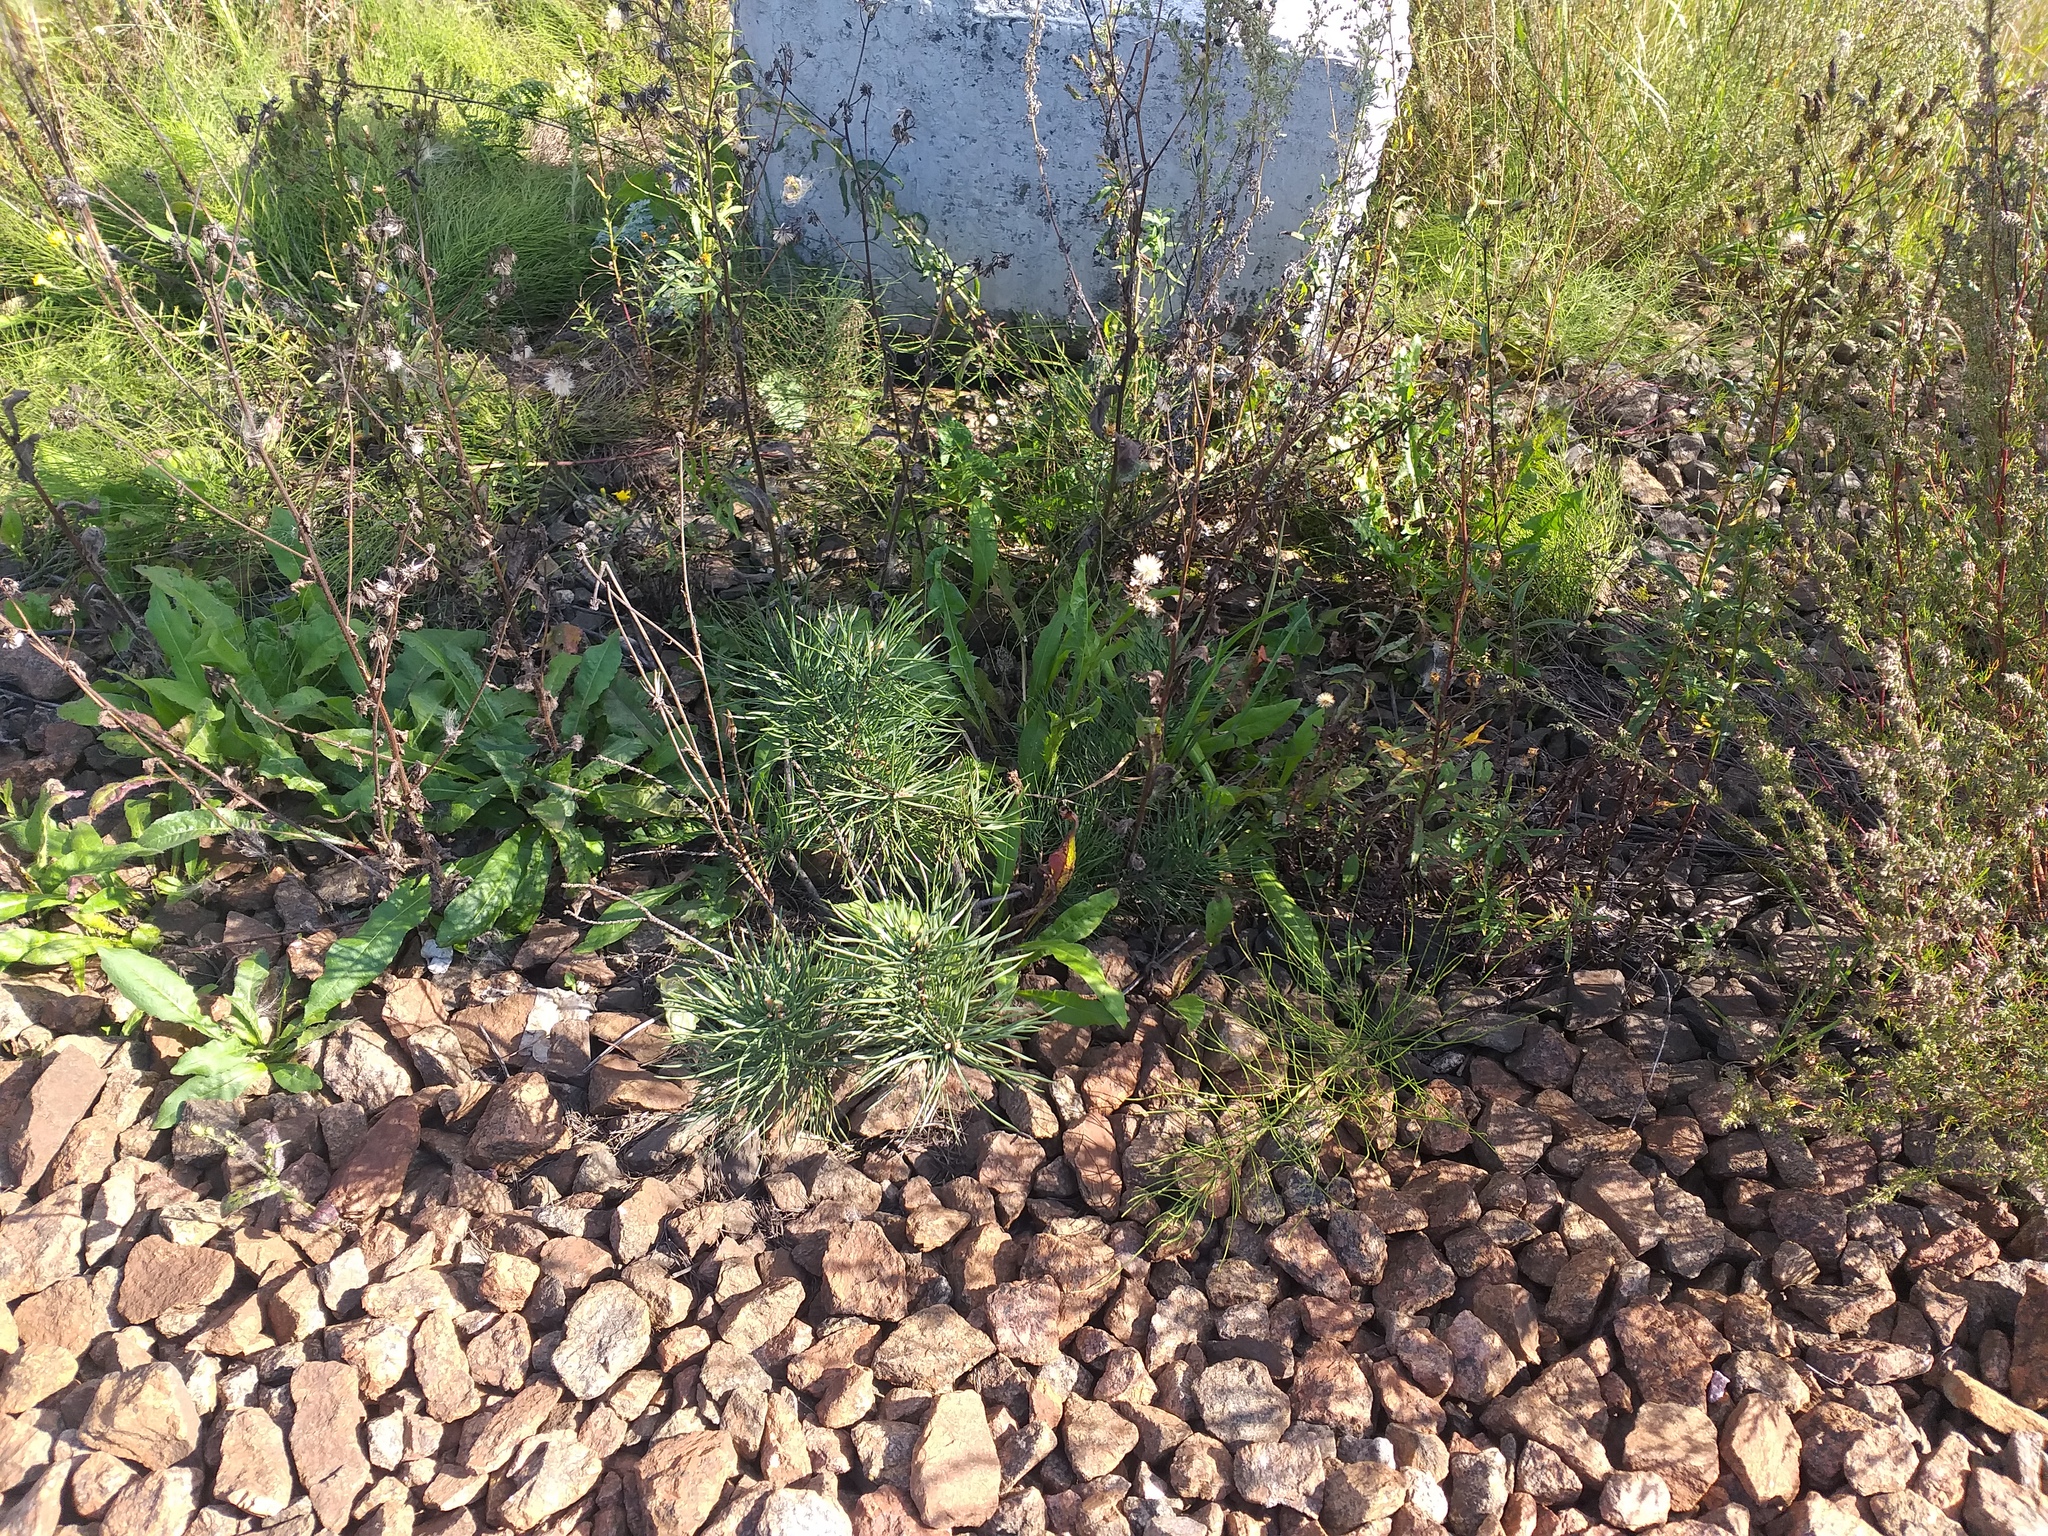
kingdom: Plantae
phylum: Tracheophyta
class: Pinopsida
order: Pinales
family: Pinaceae
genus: Pinus
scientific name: Pinus sylvestris
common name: Scots pine
